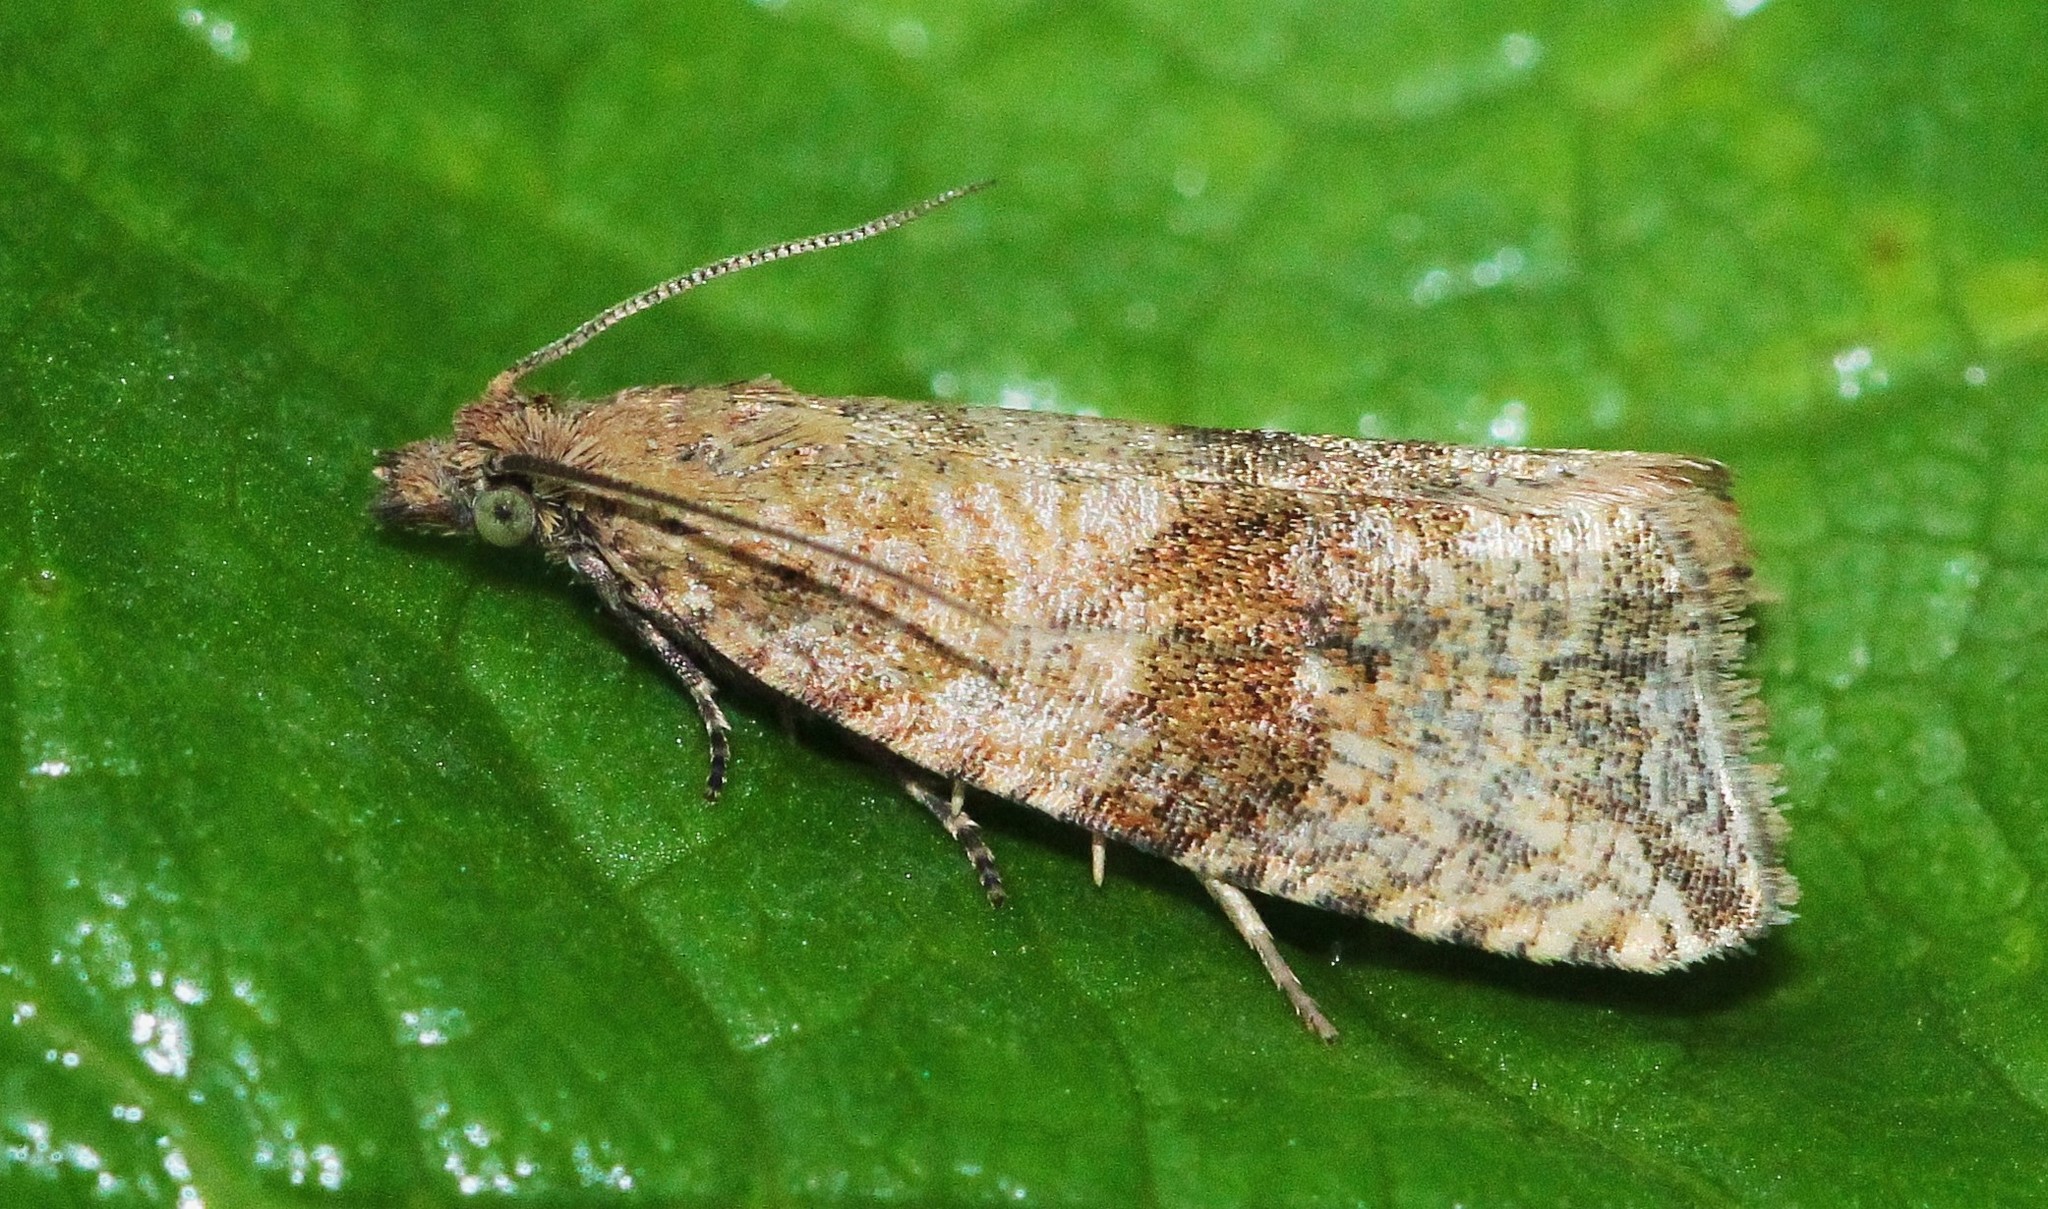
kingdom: Animalia
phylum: Arthropoda
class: Insecta
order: Lepidoptera
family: Tortricidae
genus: Celypha
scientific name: Celypha striana
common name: Barred marble
